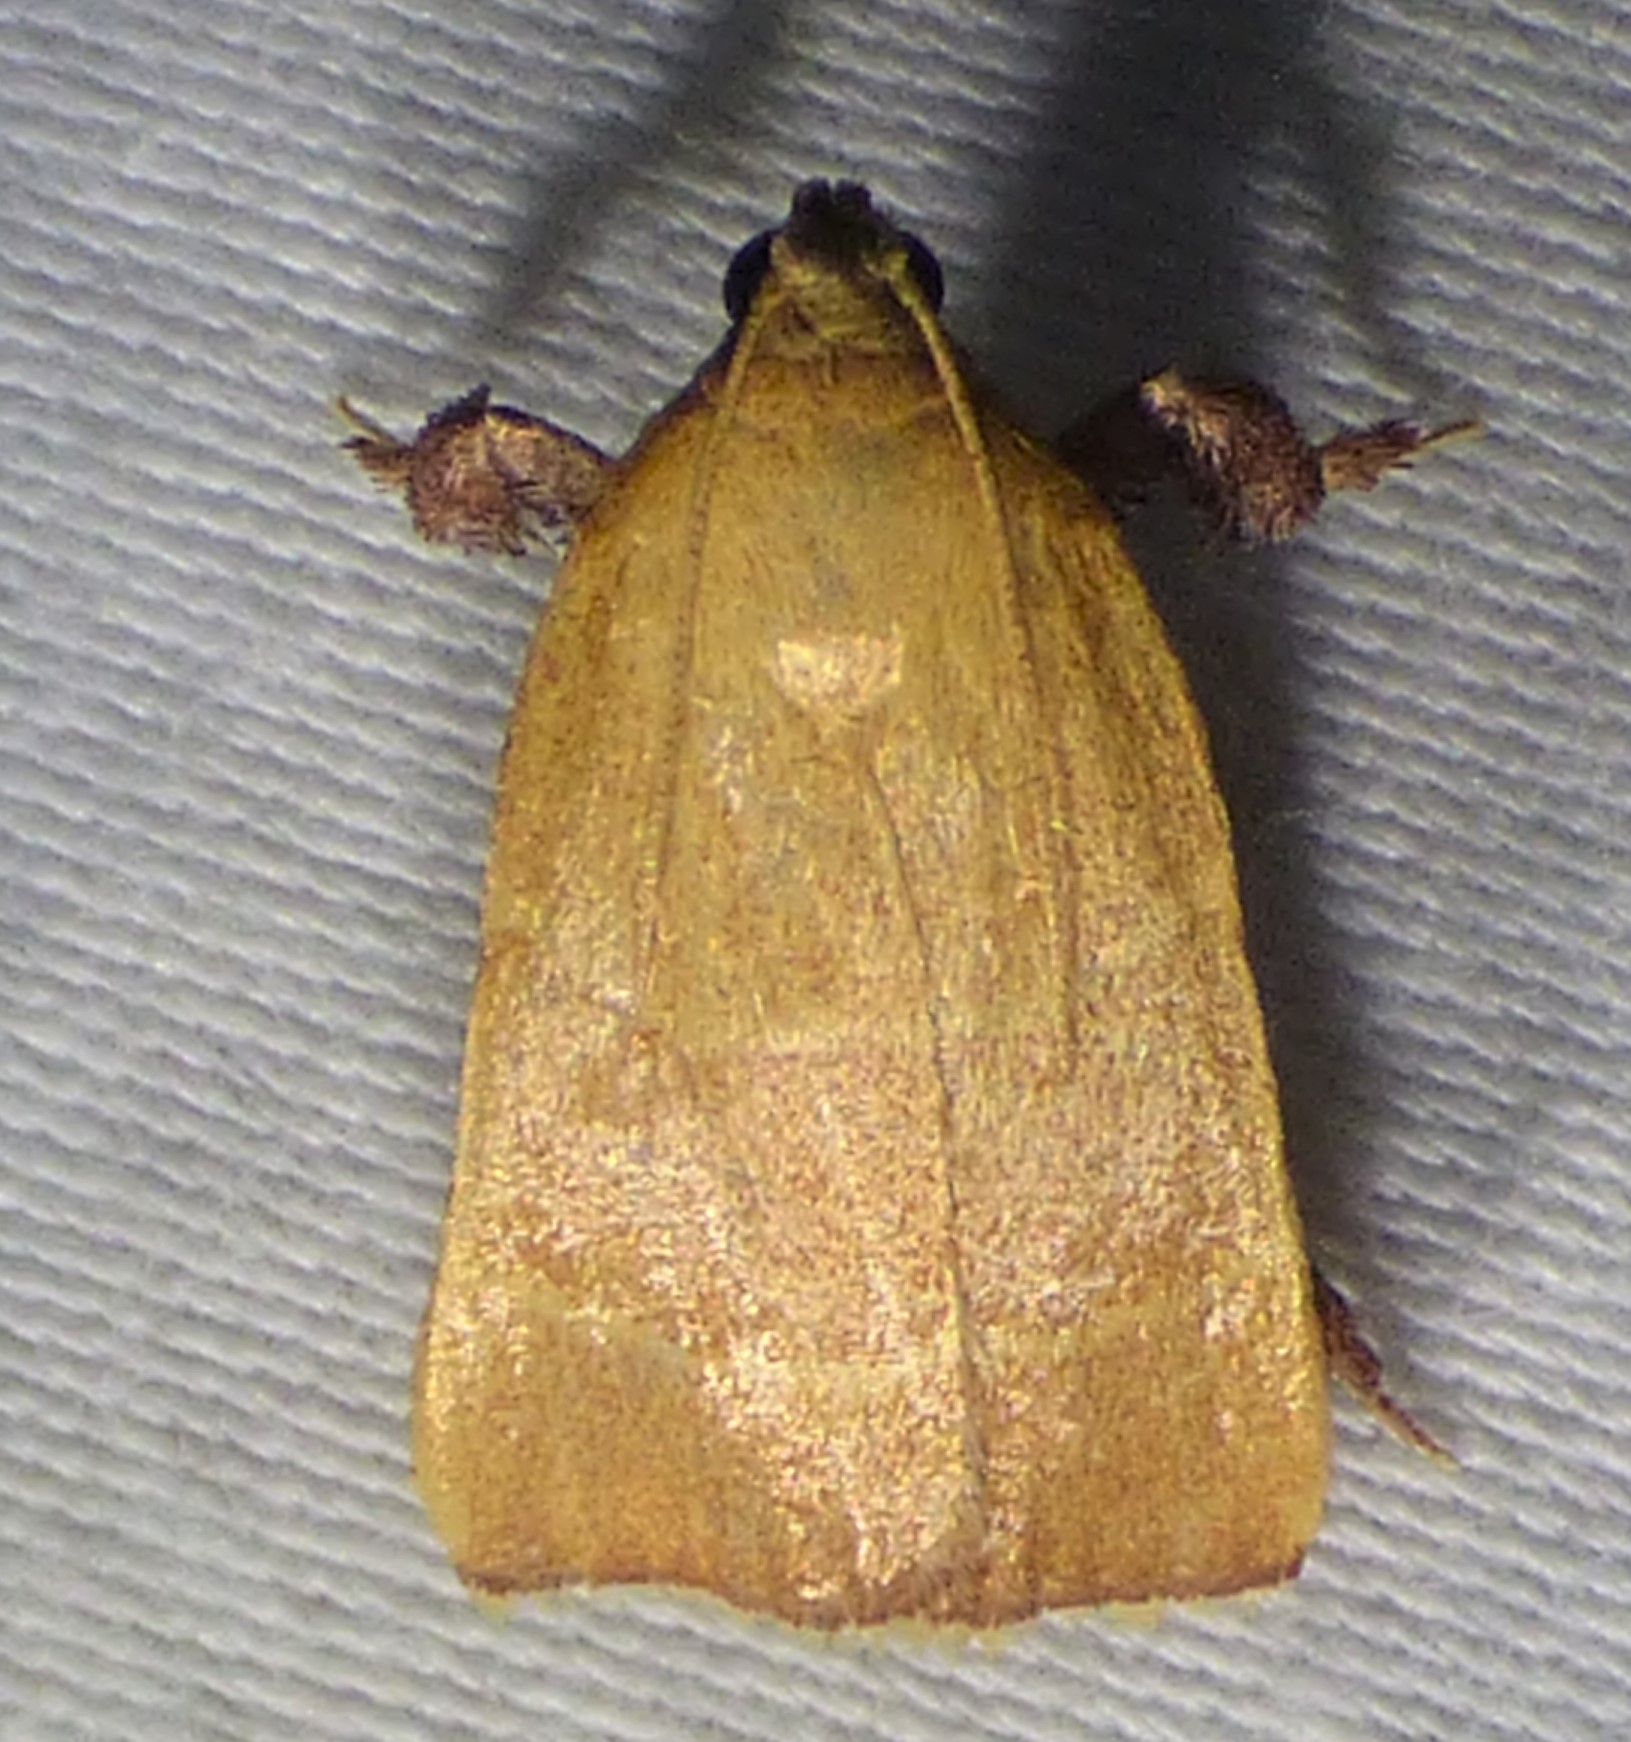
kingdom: Animalia
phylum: Arthropoda
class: Insecta
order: Lepidoptera
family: Pyralidae
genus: Parachma
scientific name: Parachma ochracealis
